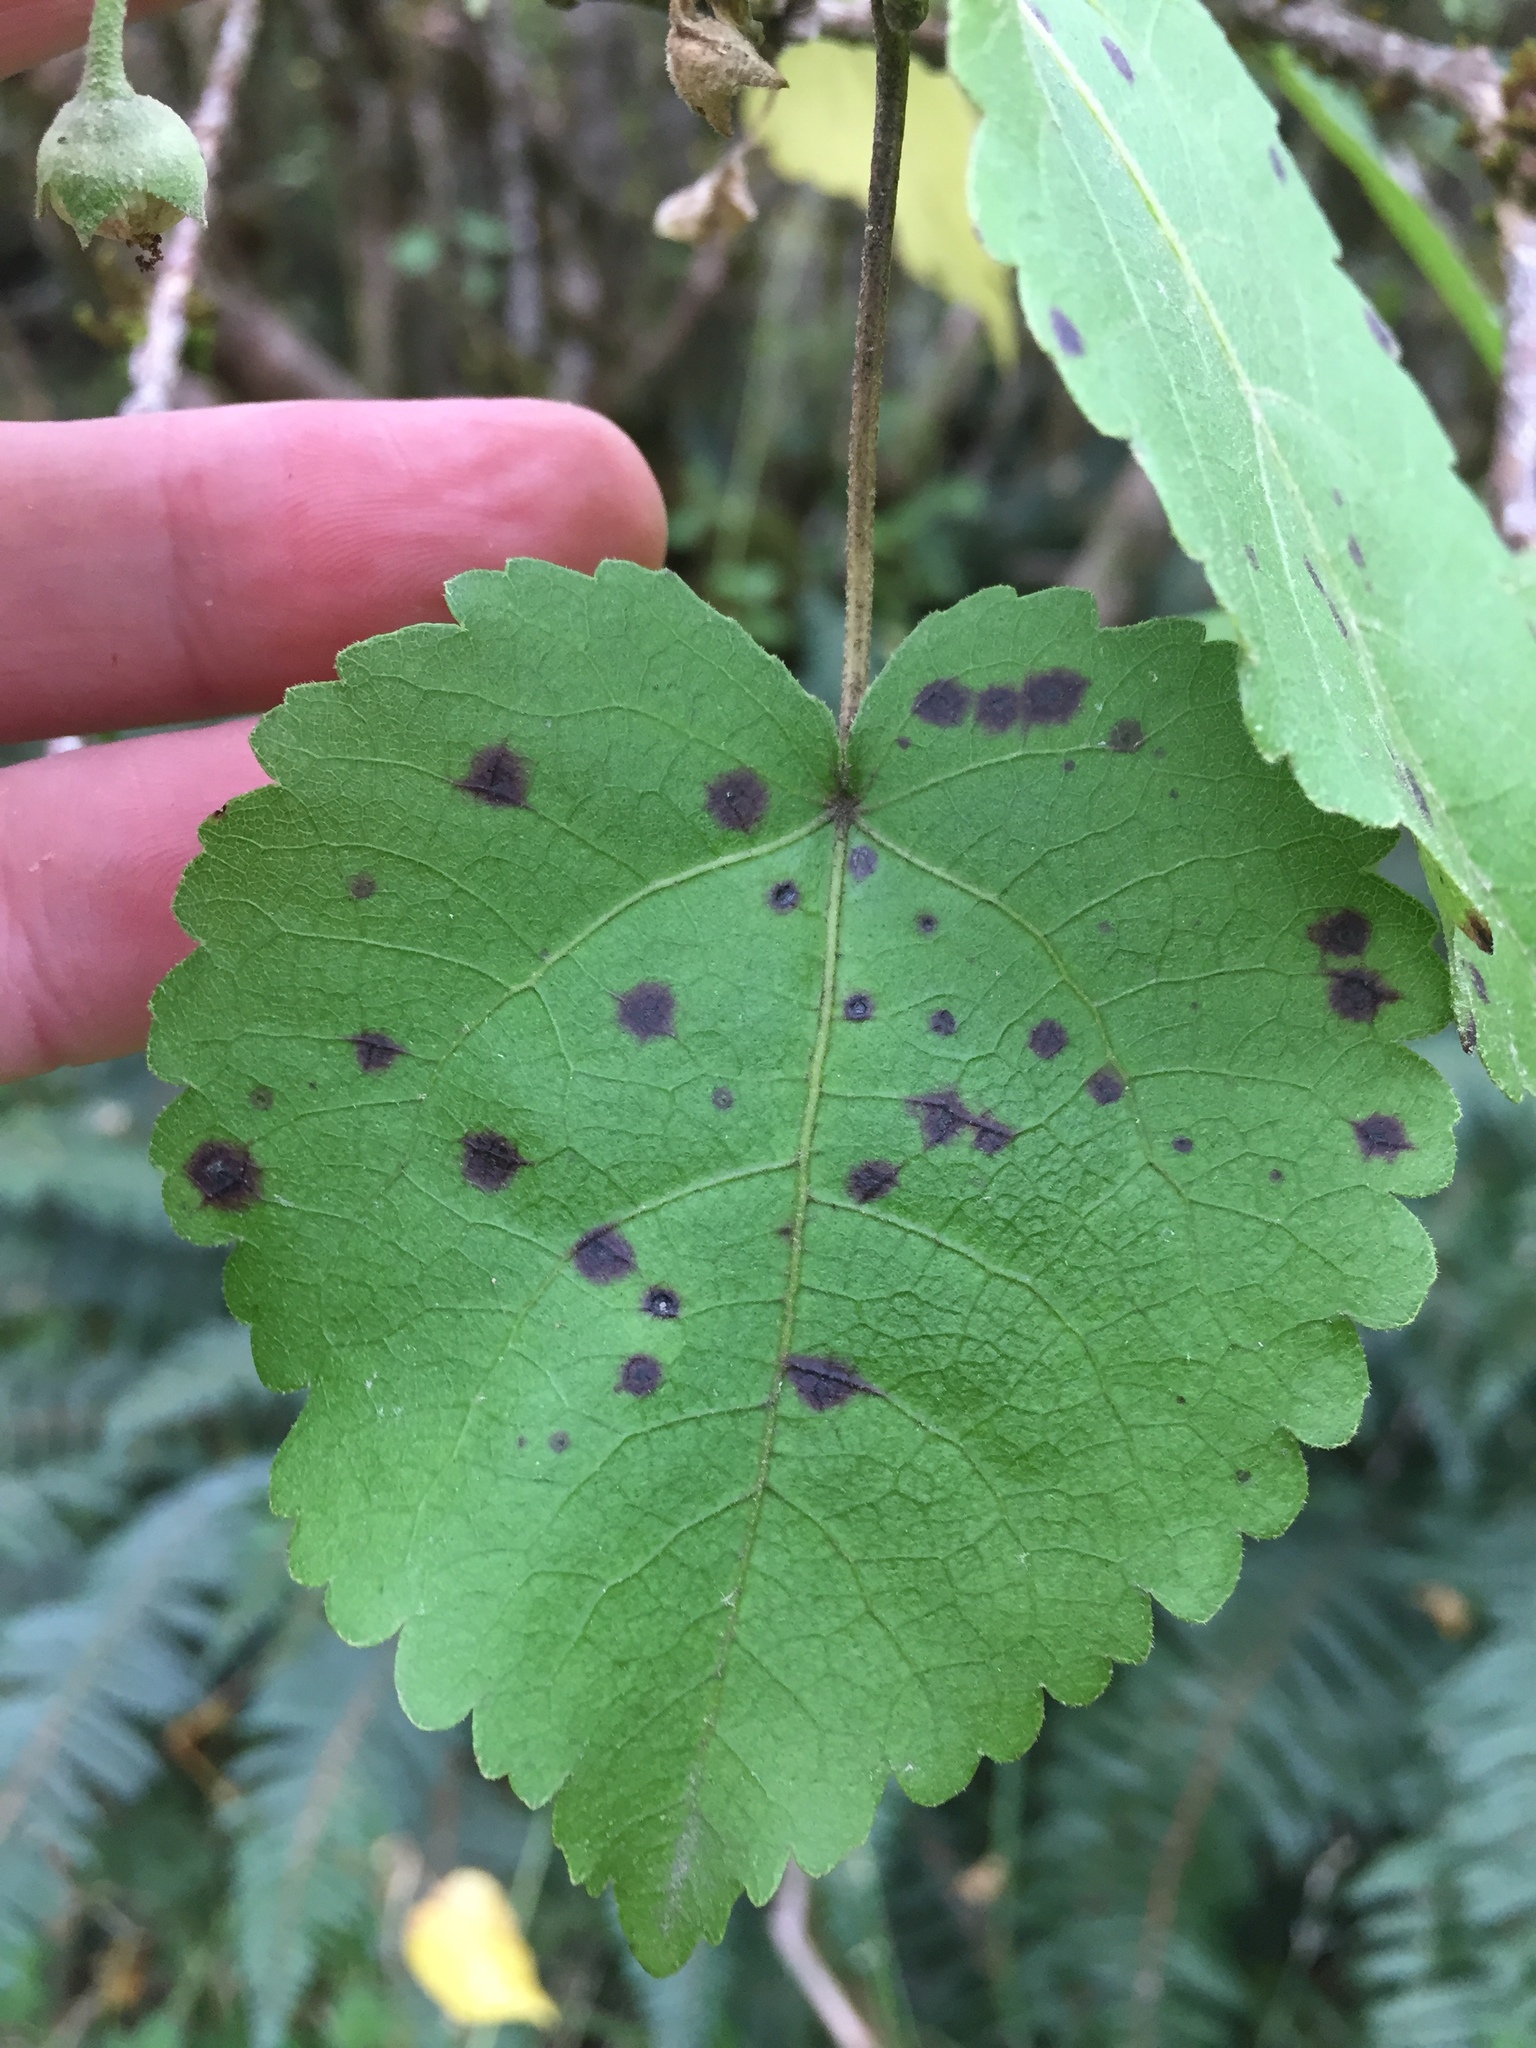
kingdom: Plantae
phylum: Tracheophyta
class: Magnoliopsida
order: Malvales
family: Malvaceae
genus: Hoheria
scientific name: Hoheria glabrata
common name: Mountain-ribbon
